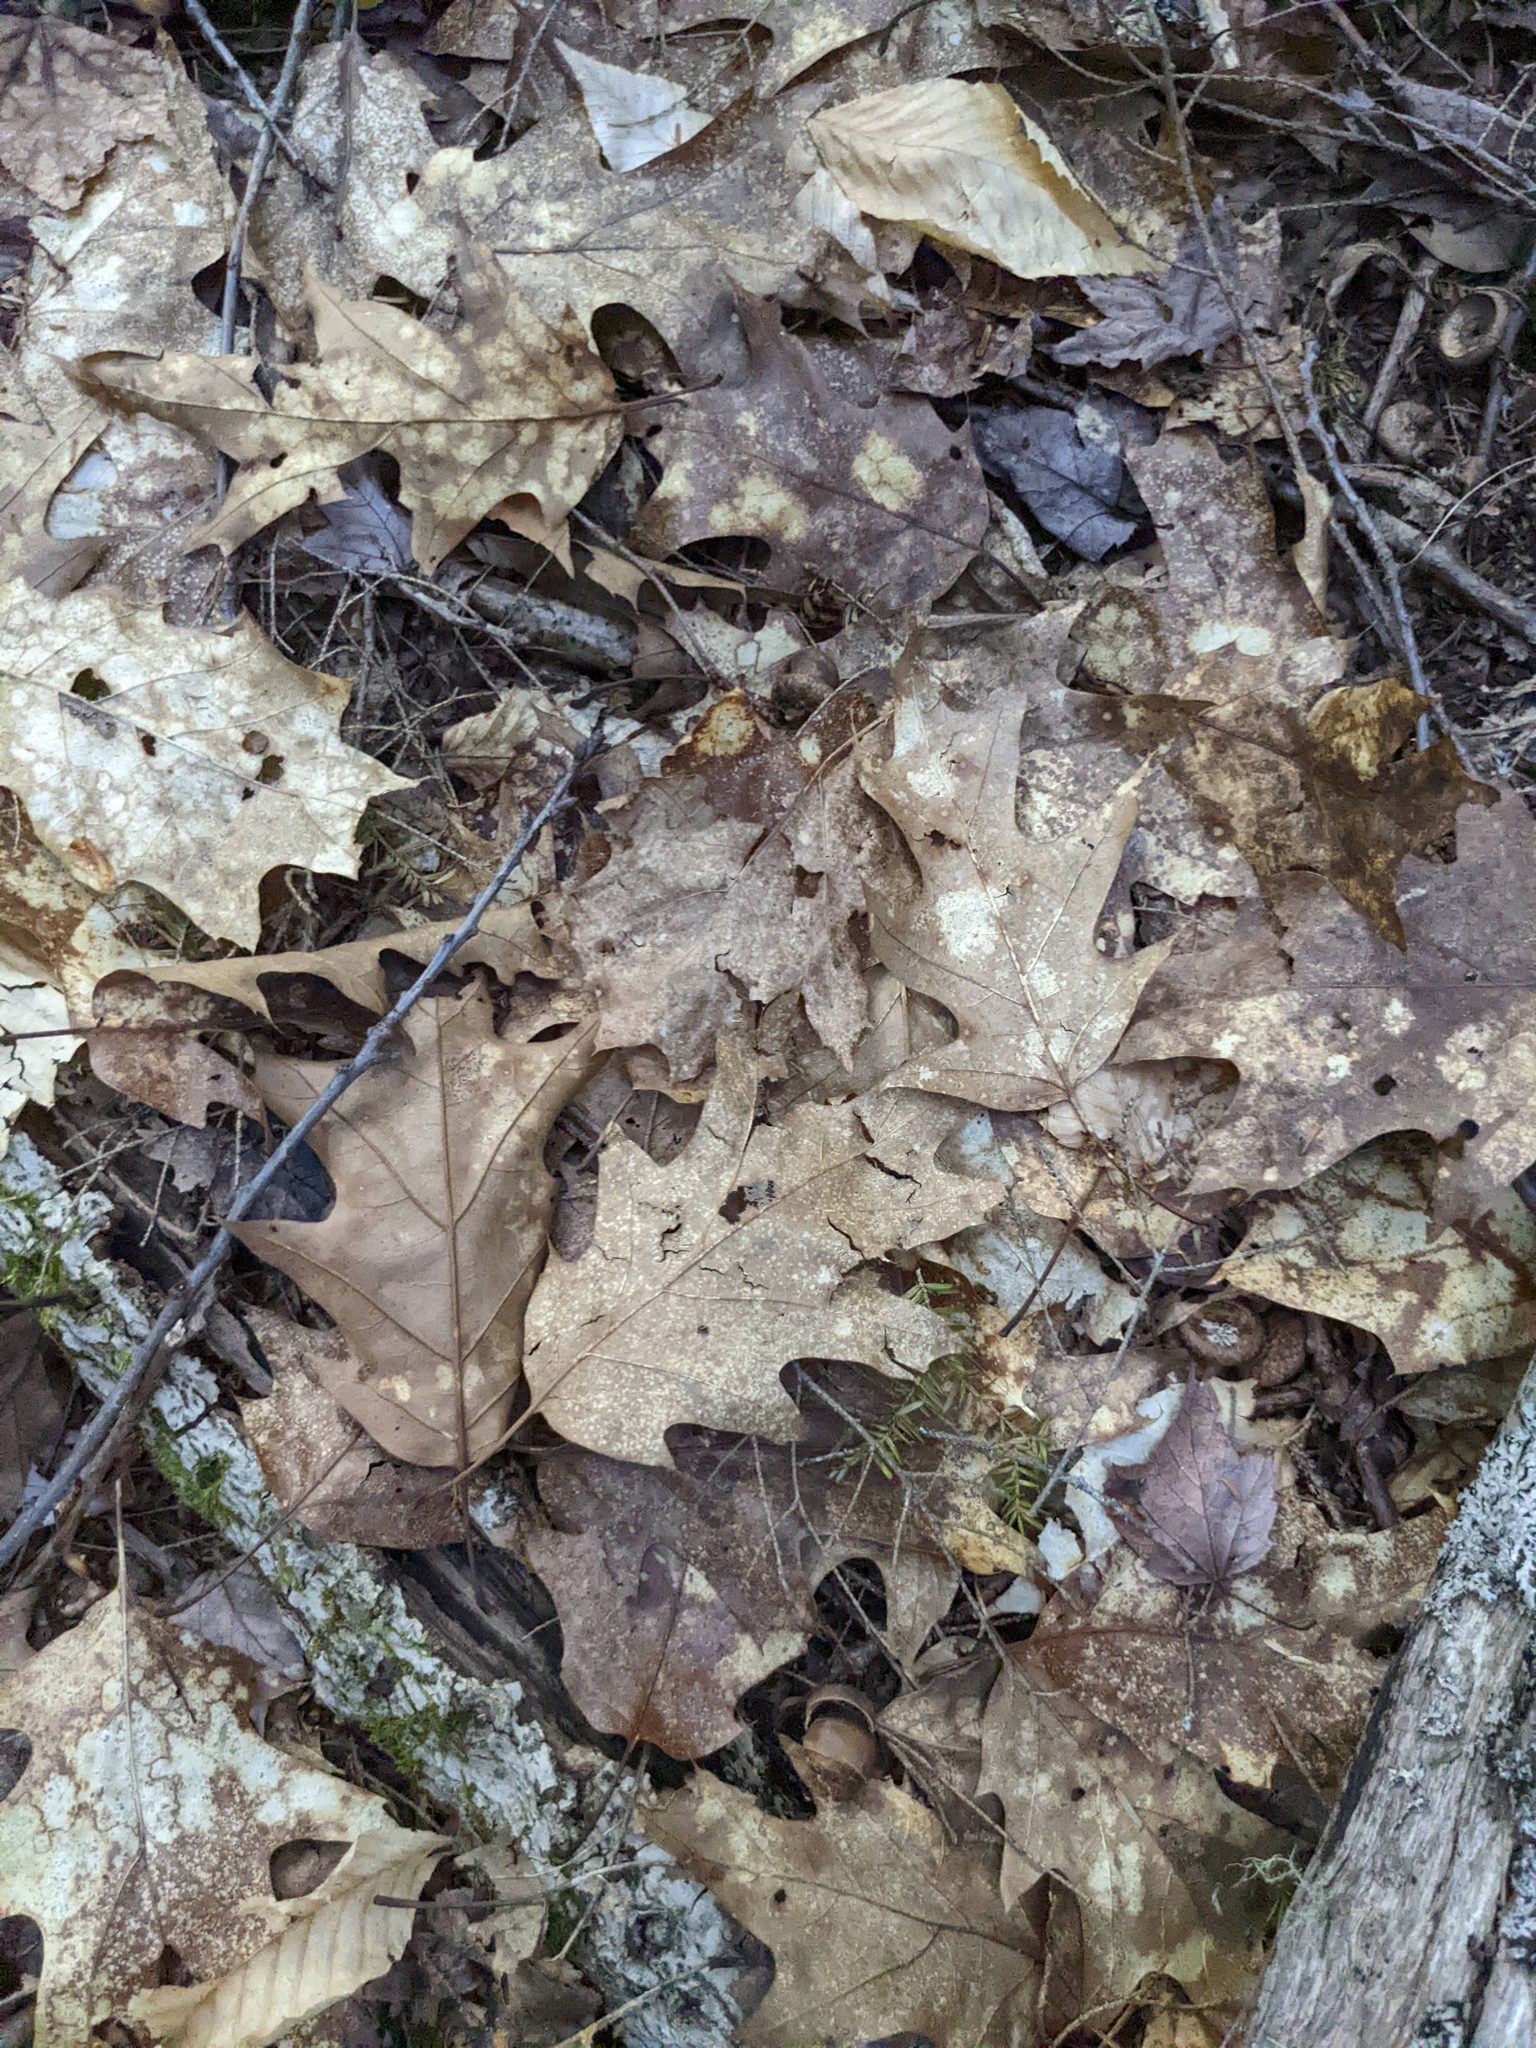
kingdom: Plantae
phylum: Tracheophyta
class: Magnoliopsida
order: Fagales
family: Fagaceae
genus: Quercus
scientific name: Quercus rubra
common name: Red oak
